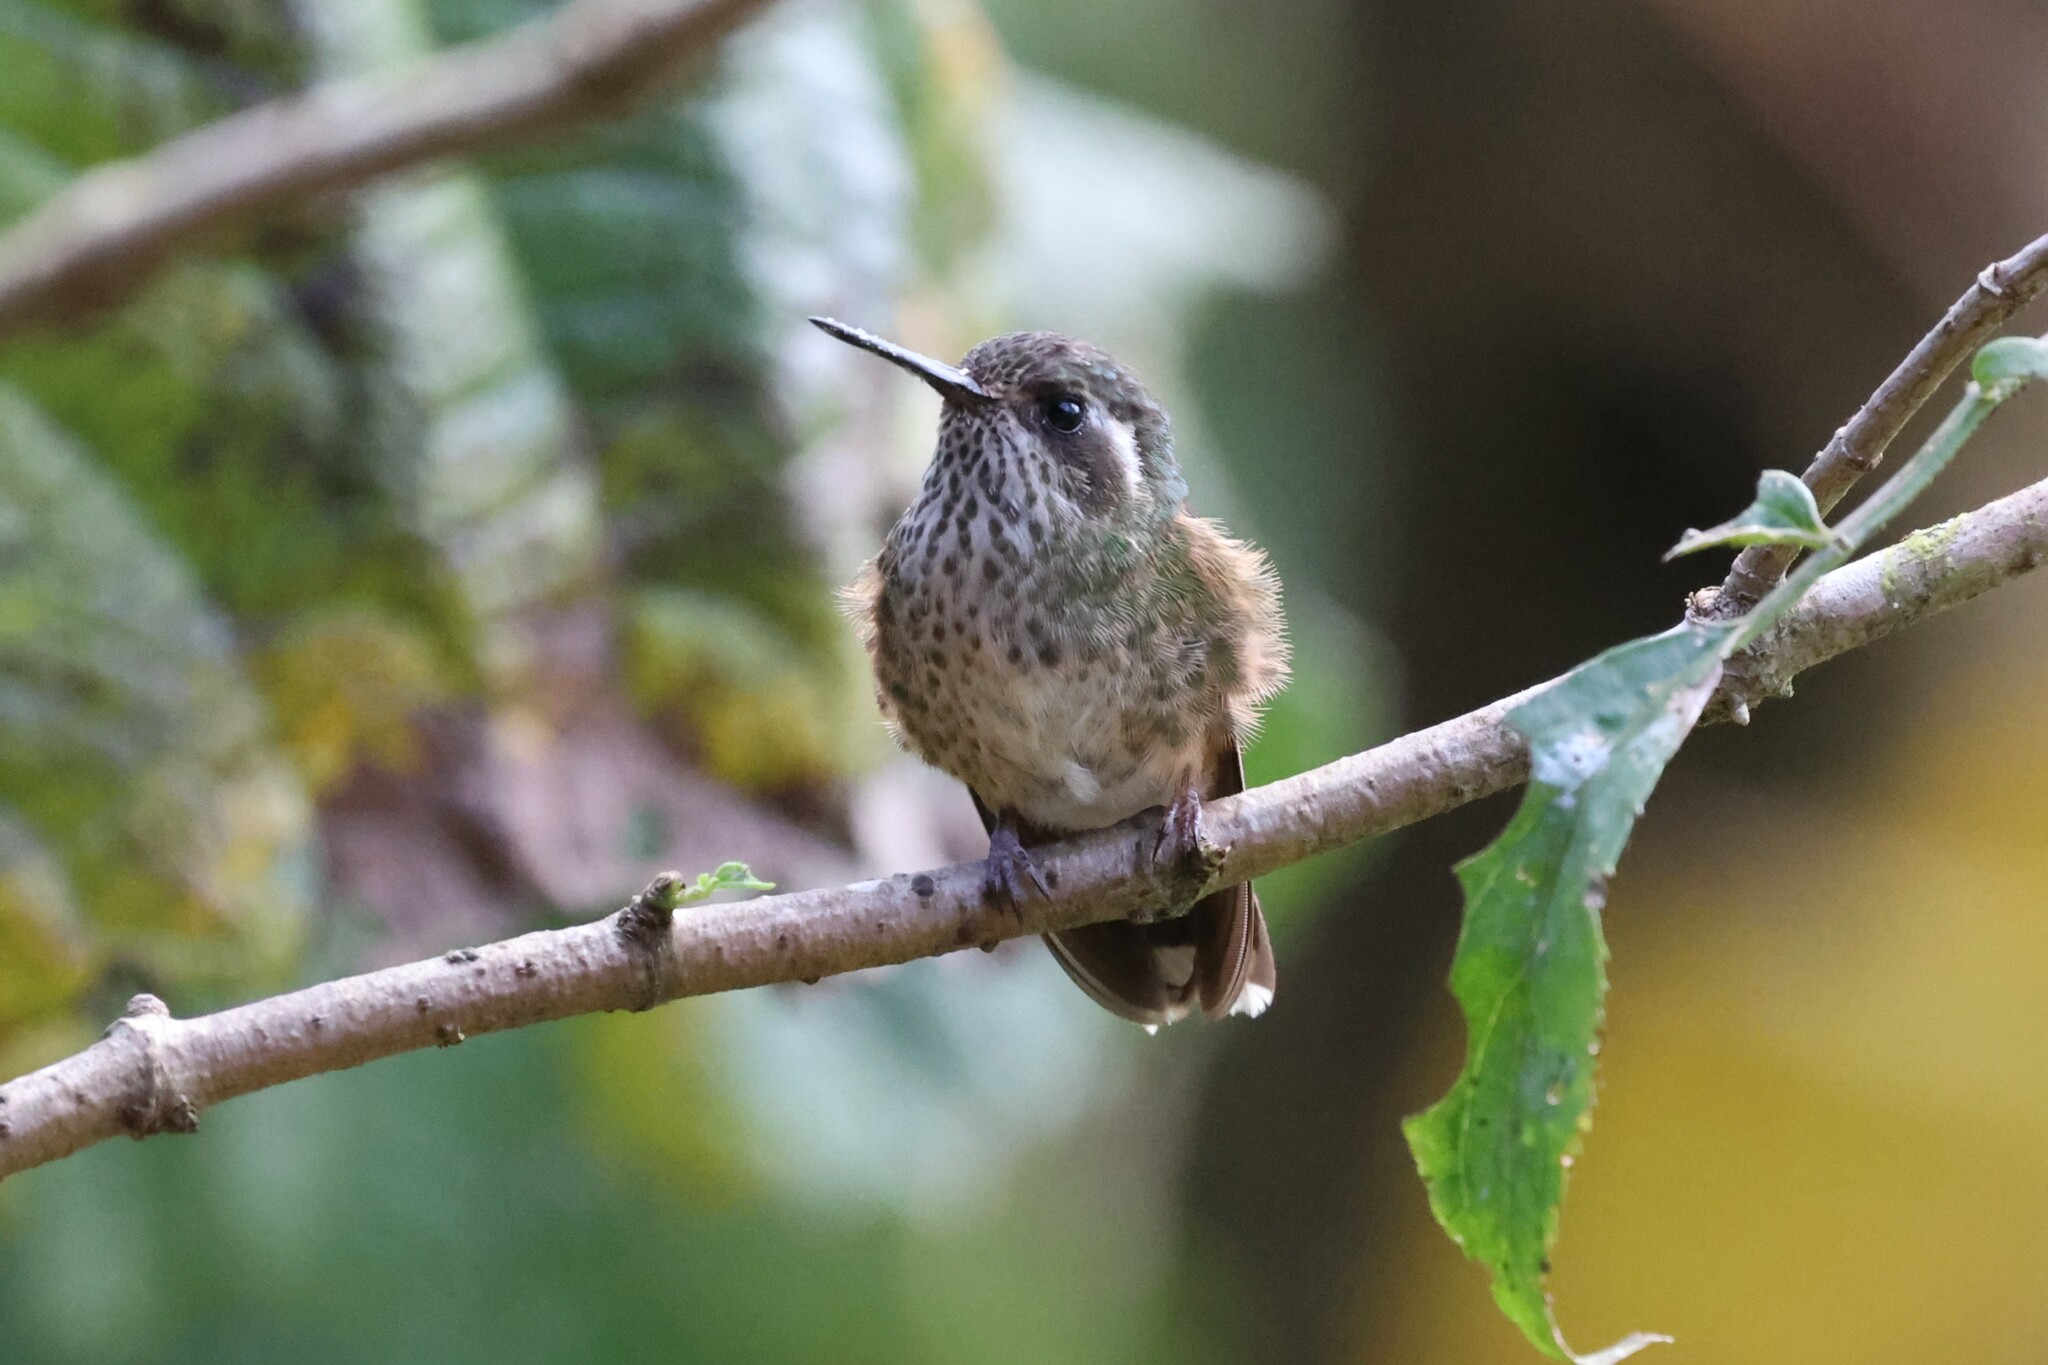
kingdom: Animalia
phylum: Chordata
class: Aves
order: Apodiformes
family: Trochilidae
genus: Adelomyia
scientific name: Adelomyia melanogenys
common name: Speckled hummingbird
